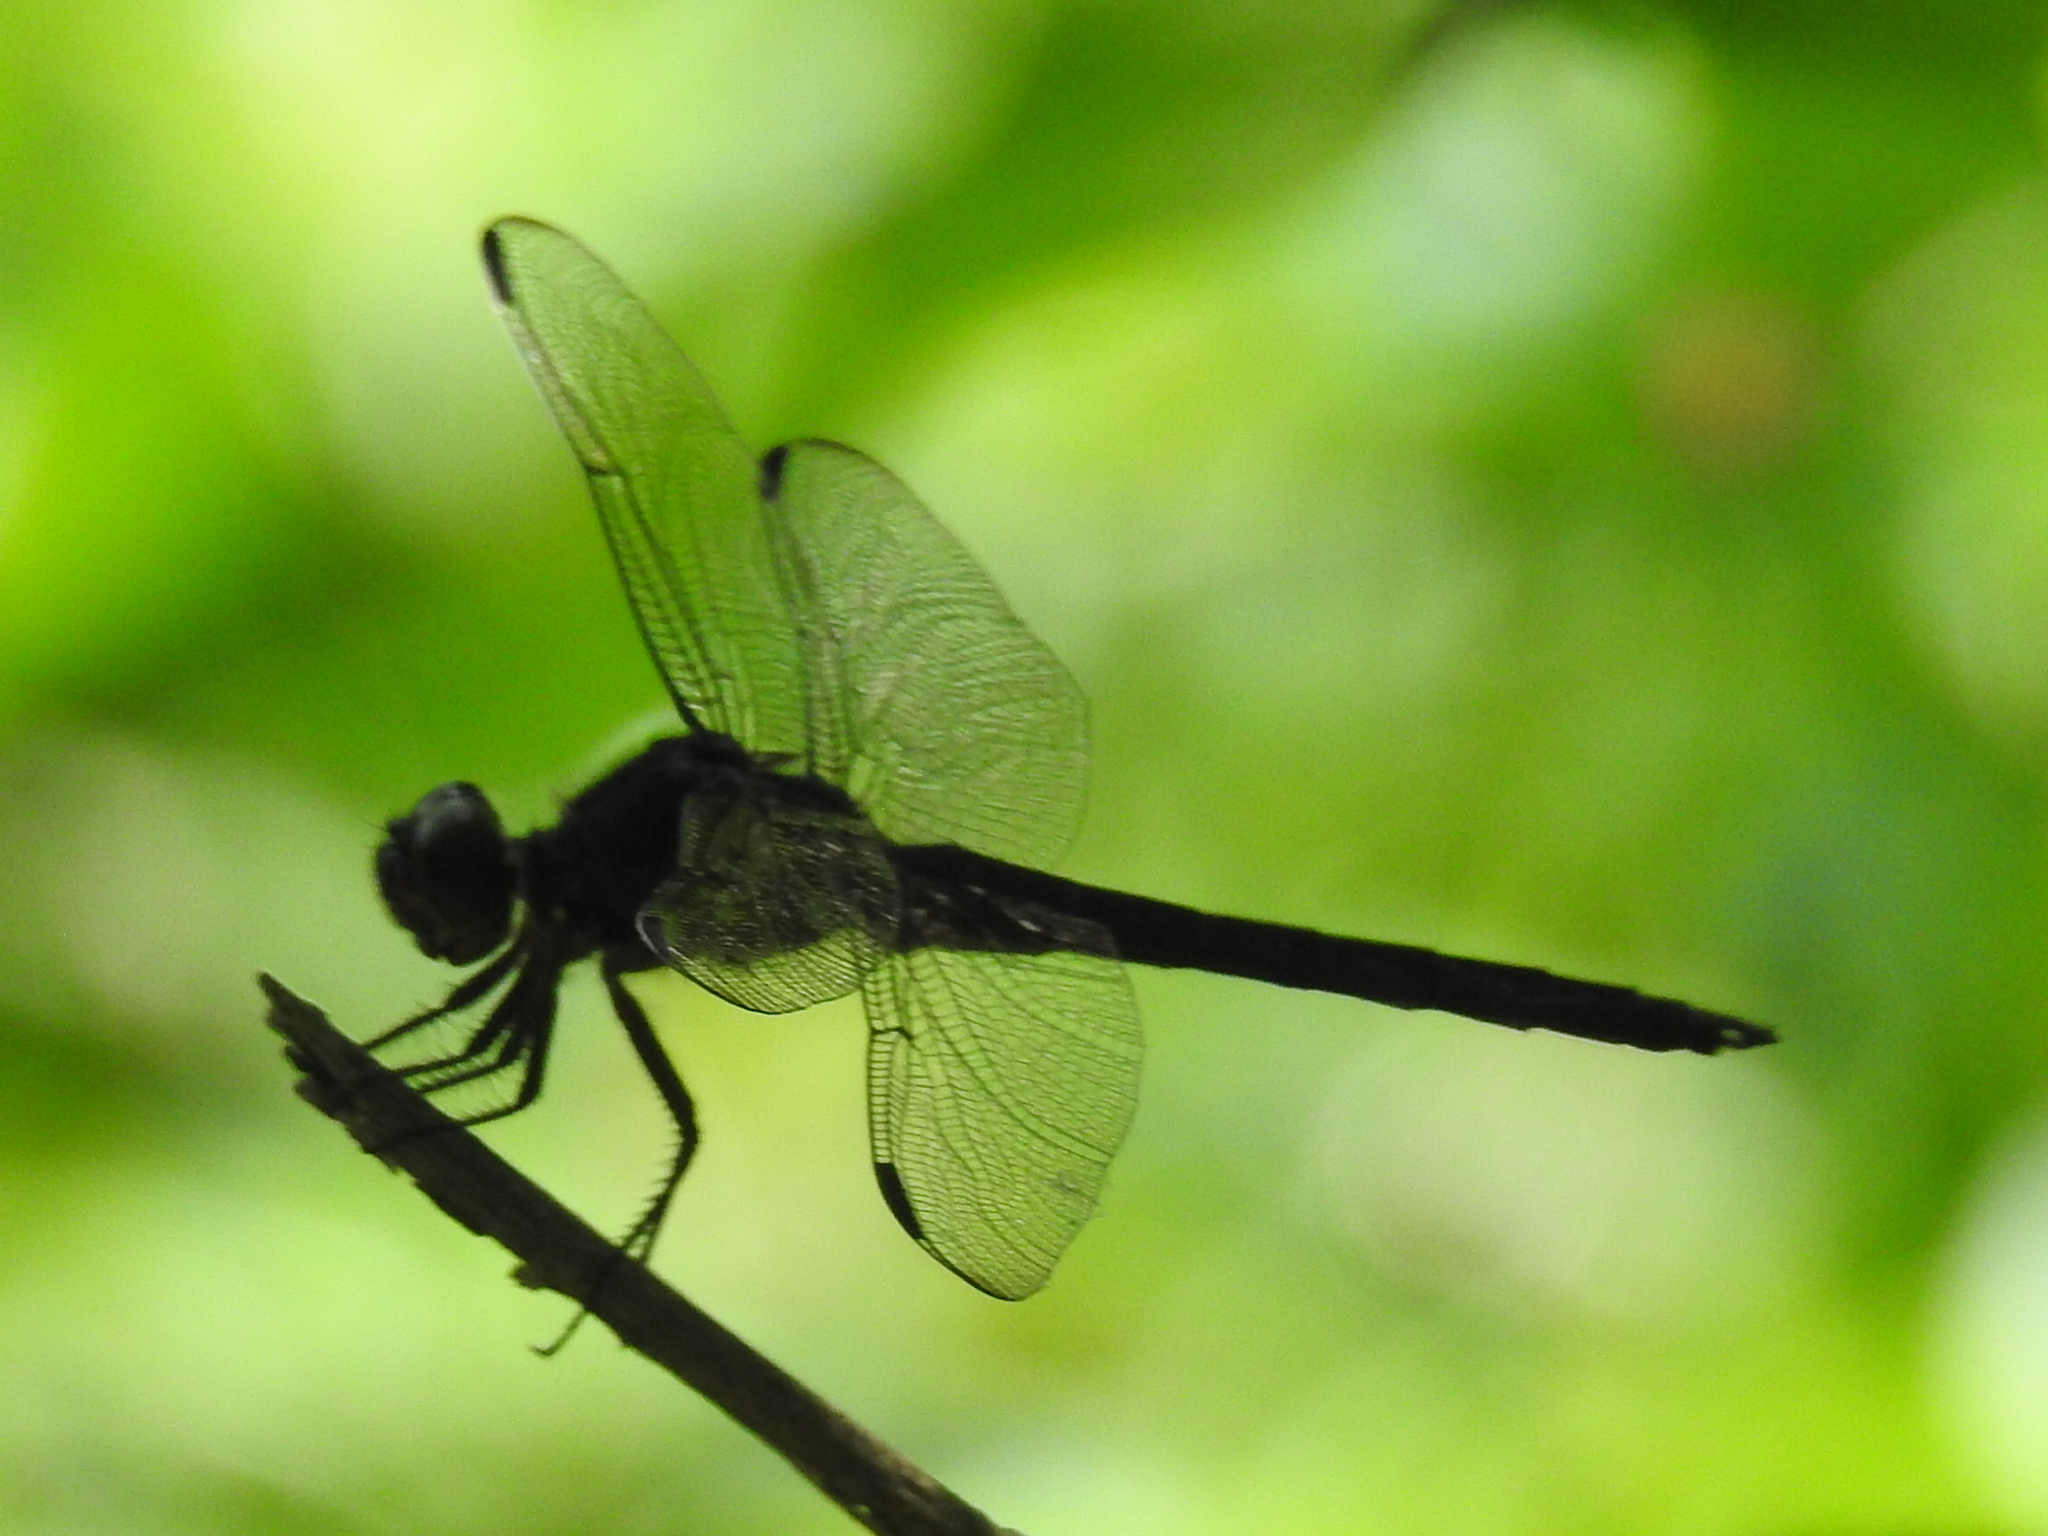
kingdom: Animalia
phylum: Arthropoda
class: Insecta
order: Odonata
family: Libellulidae
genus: Libellula
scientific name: Libellula incesta
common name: Slaty skimmer
